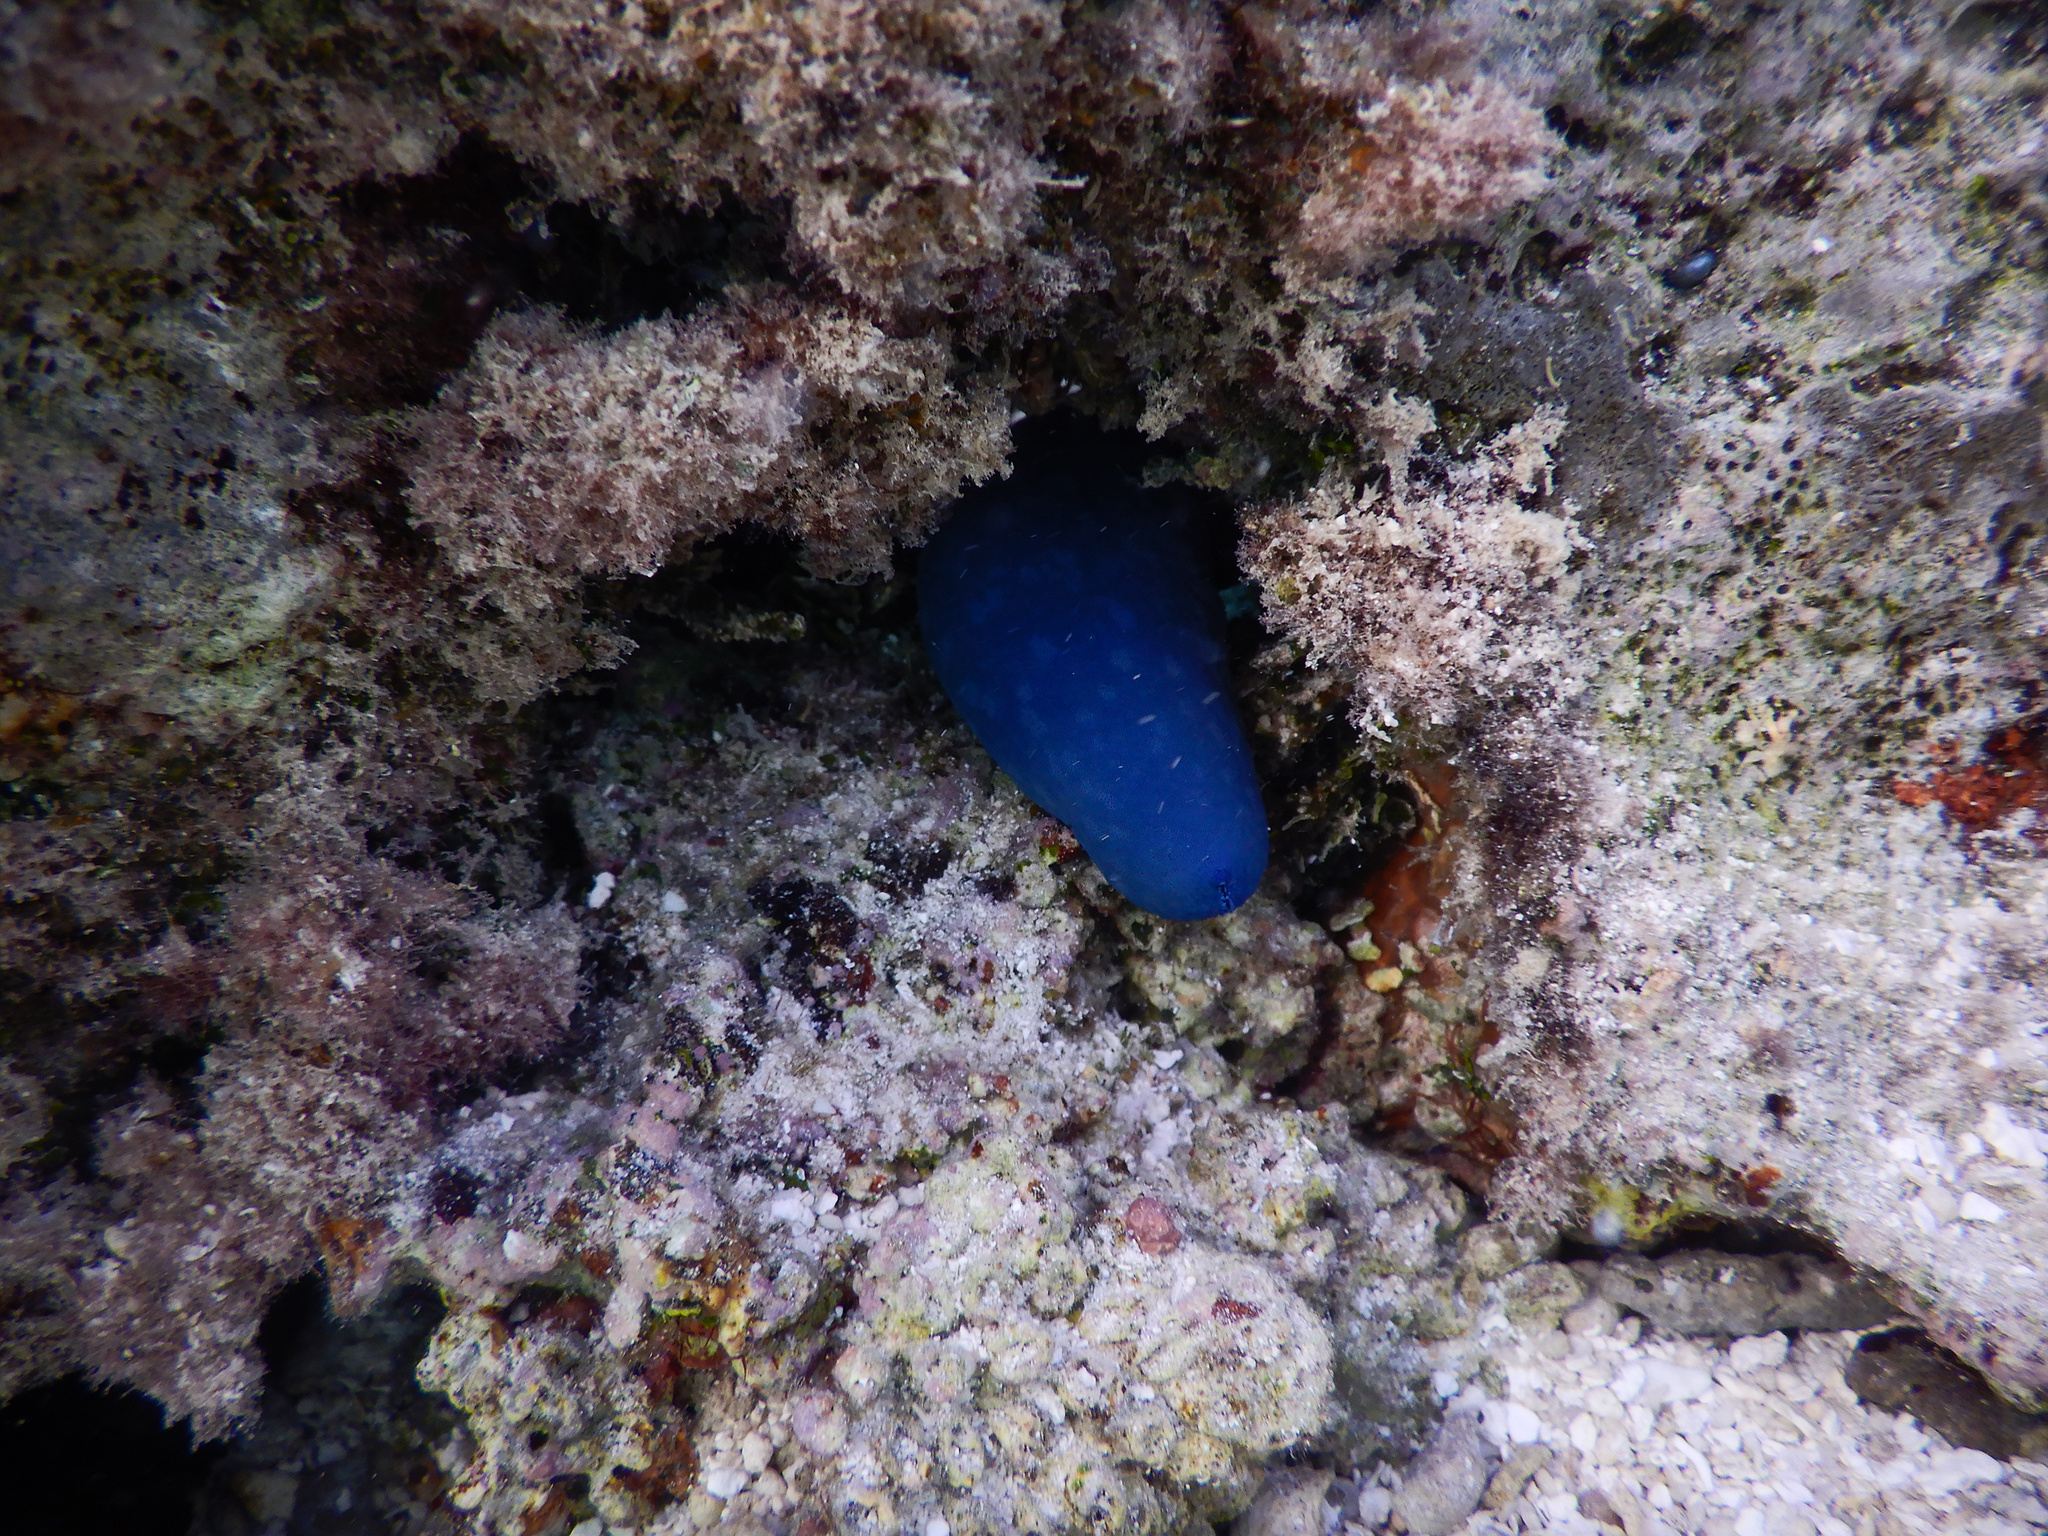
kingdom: Animalia
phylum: Echinodermata
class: Asteroidea
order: Valvatida
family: Ophidiasteridae
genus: Linckia
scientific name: Linckia laevigata
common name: Azure sea star
